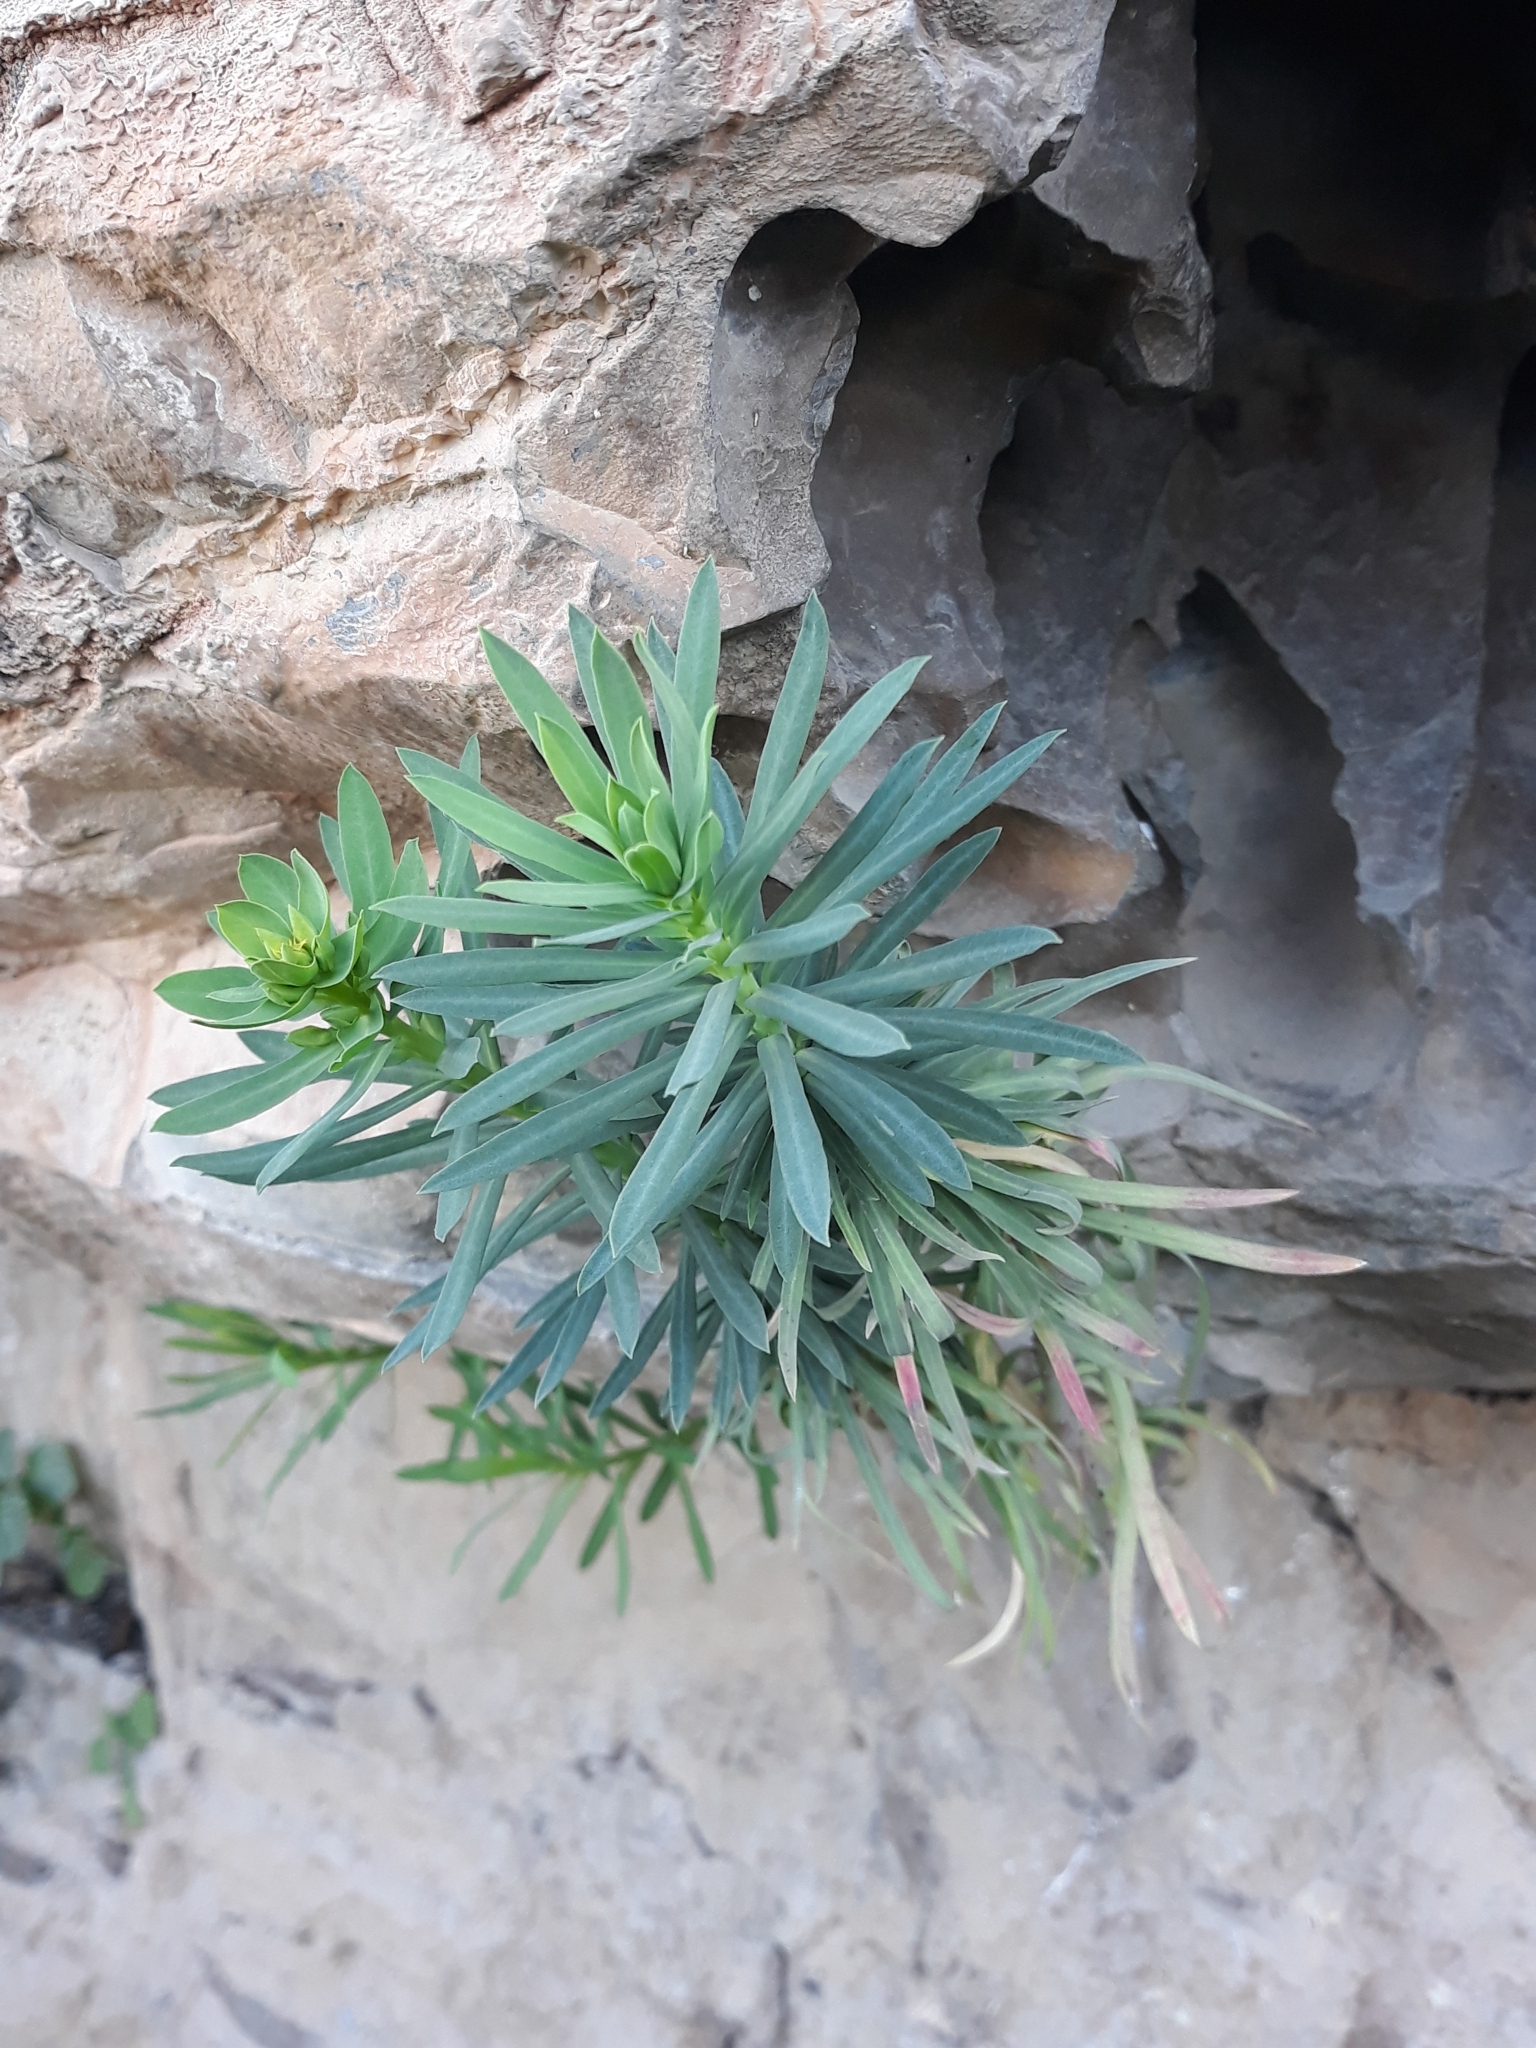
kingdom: Plantae
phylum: Tracheophyta
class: Magnoliopsida
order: Malpighiales
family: Euphorbiaceae
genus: Euphorbia
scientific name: Euphorbia segetalis
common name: Corn spurge
